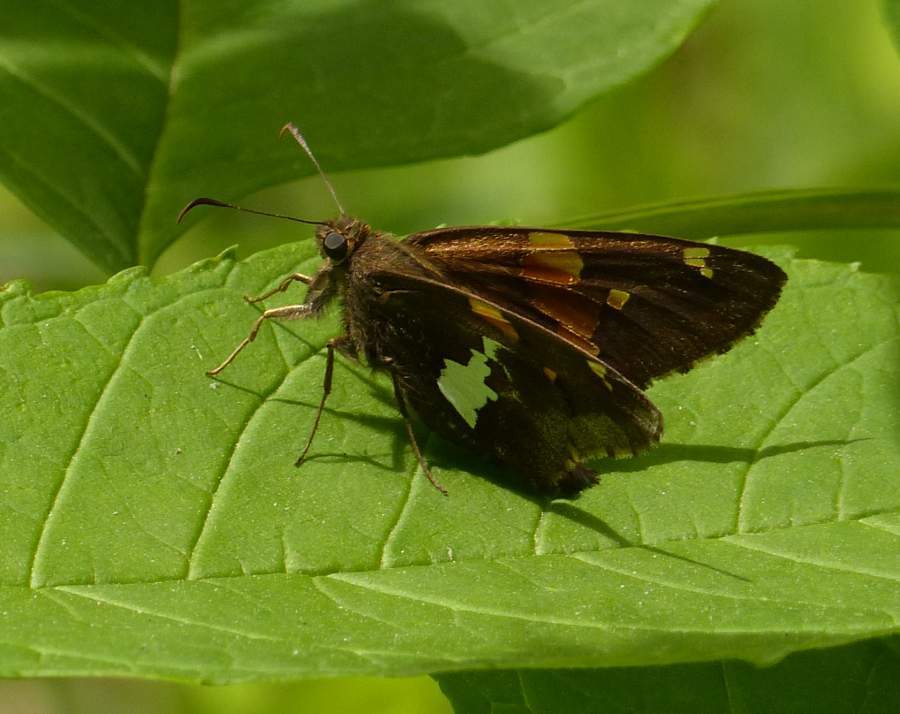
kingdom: Animalia
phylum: Arthropoda
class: Insecta
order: Lepidoptera
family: Hesperiidae
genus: Epargyreus
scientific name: Epargyreus clarus
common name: Silver-spotted skipper
